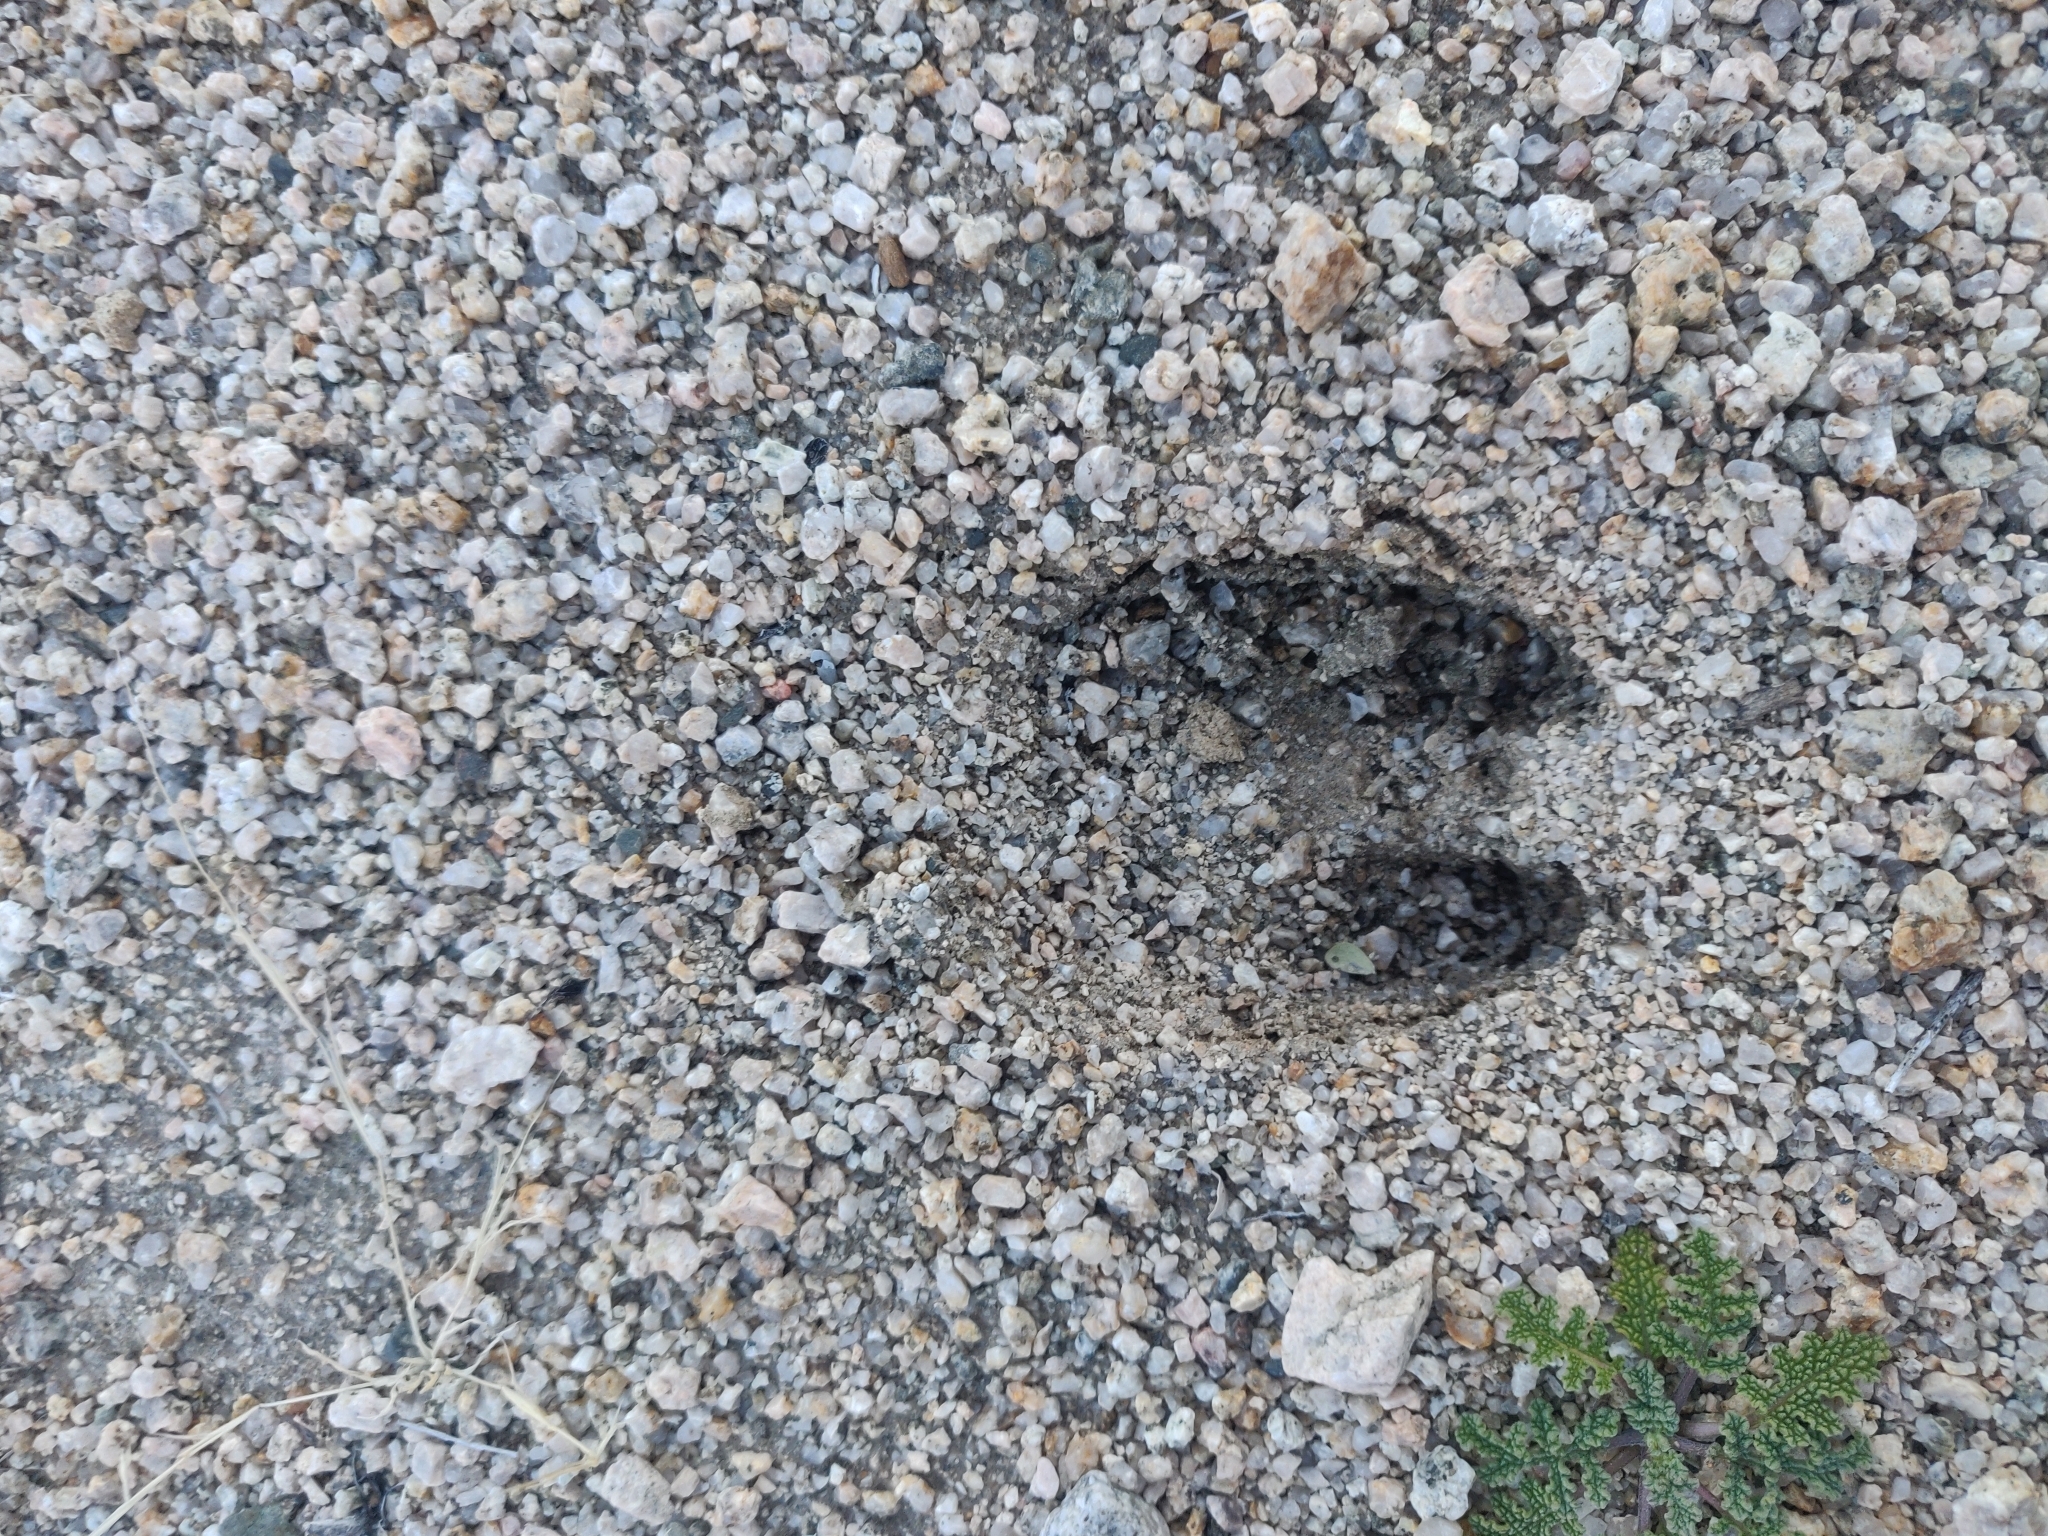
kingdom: Animalia
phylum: Chordata
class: Mammalia
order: Artiodactyla
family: Cervidae
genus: Odocoileus
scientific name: Odocoileus hemionus
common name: Mule deer
